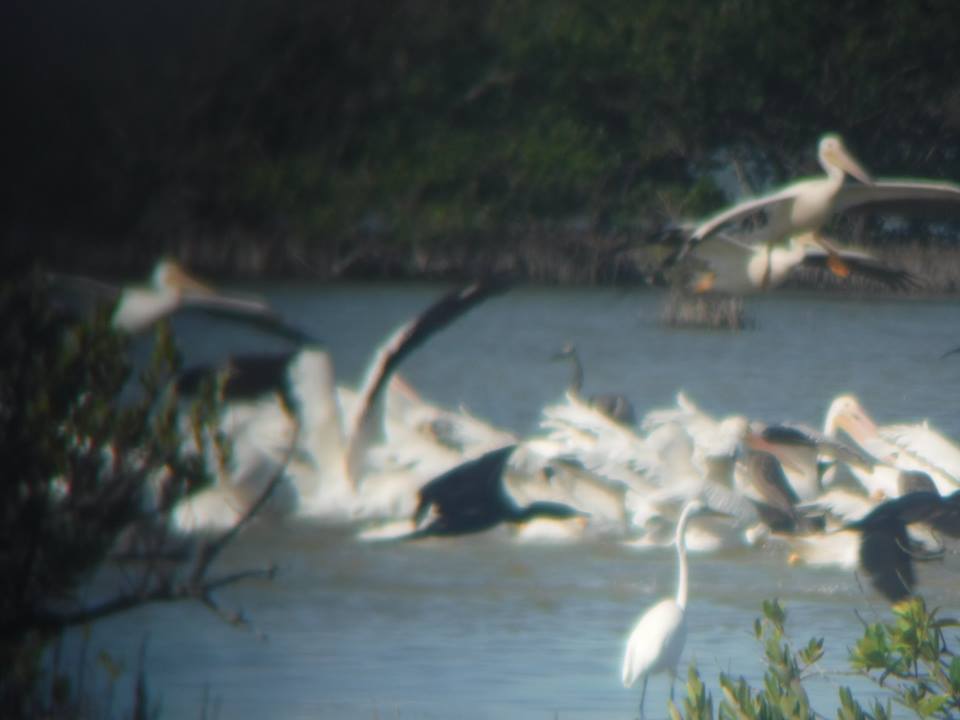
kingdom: Animalia
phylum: Chordata
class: Aves
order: Pelecaniformes
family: Pelecanidae
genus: Pelecanus
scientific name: Pelecanus erythrorhynchos
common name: American white pelican
